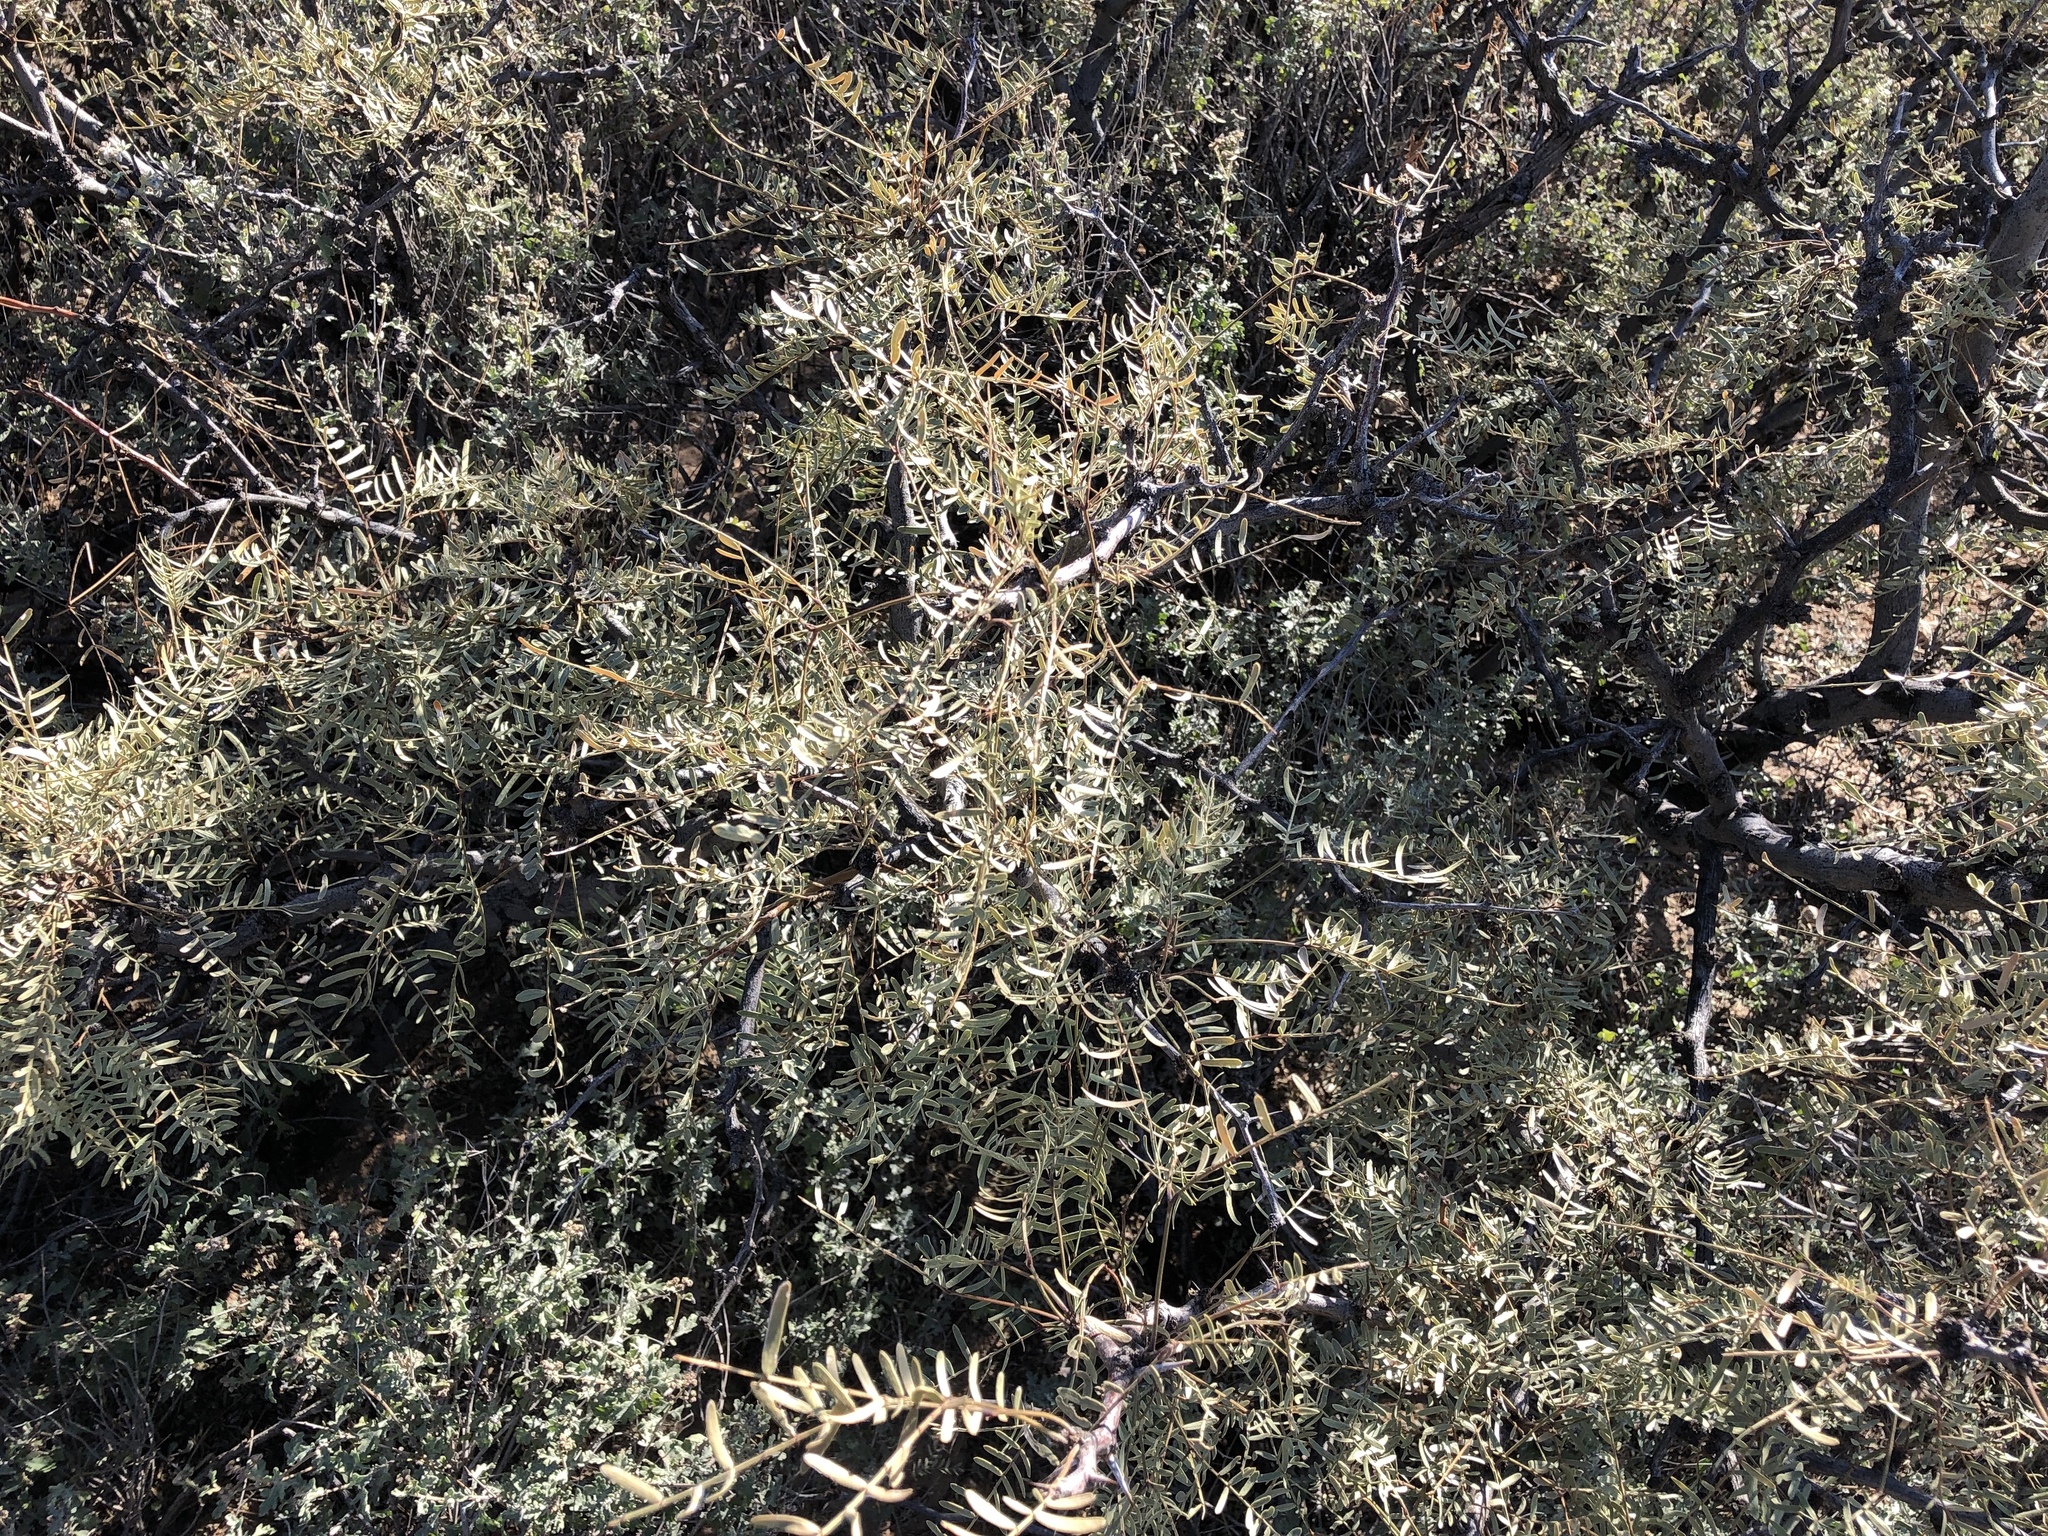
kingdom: Plantae
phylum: Tracheophyta
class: Magnoliopsida
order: Fabales
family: Fabaceae
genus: Prosopis
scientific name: Prosopis glandulosa
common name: Honey mesquite
